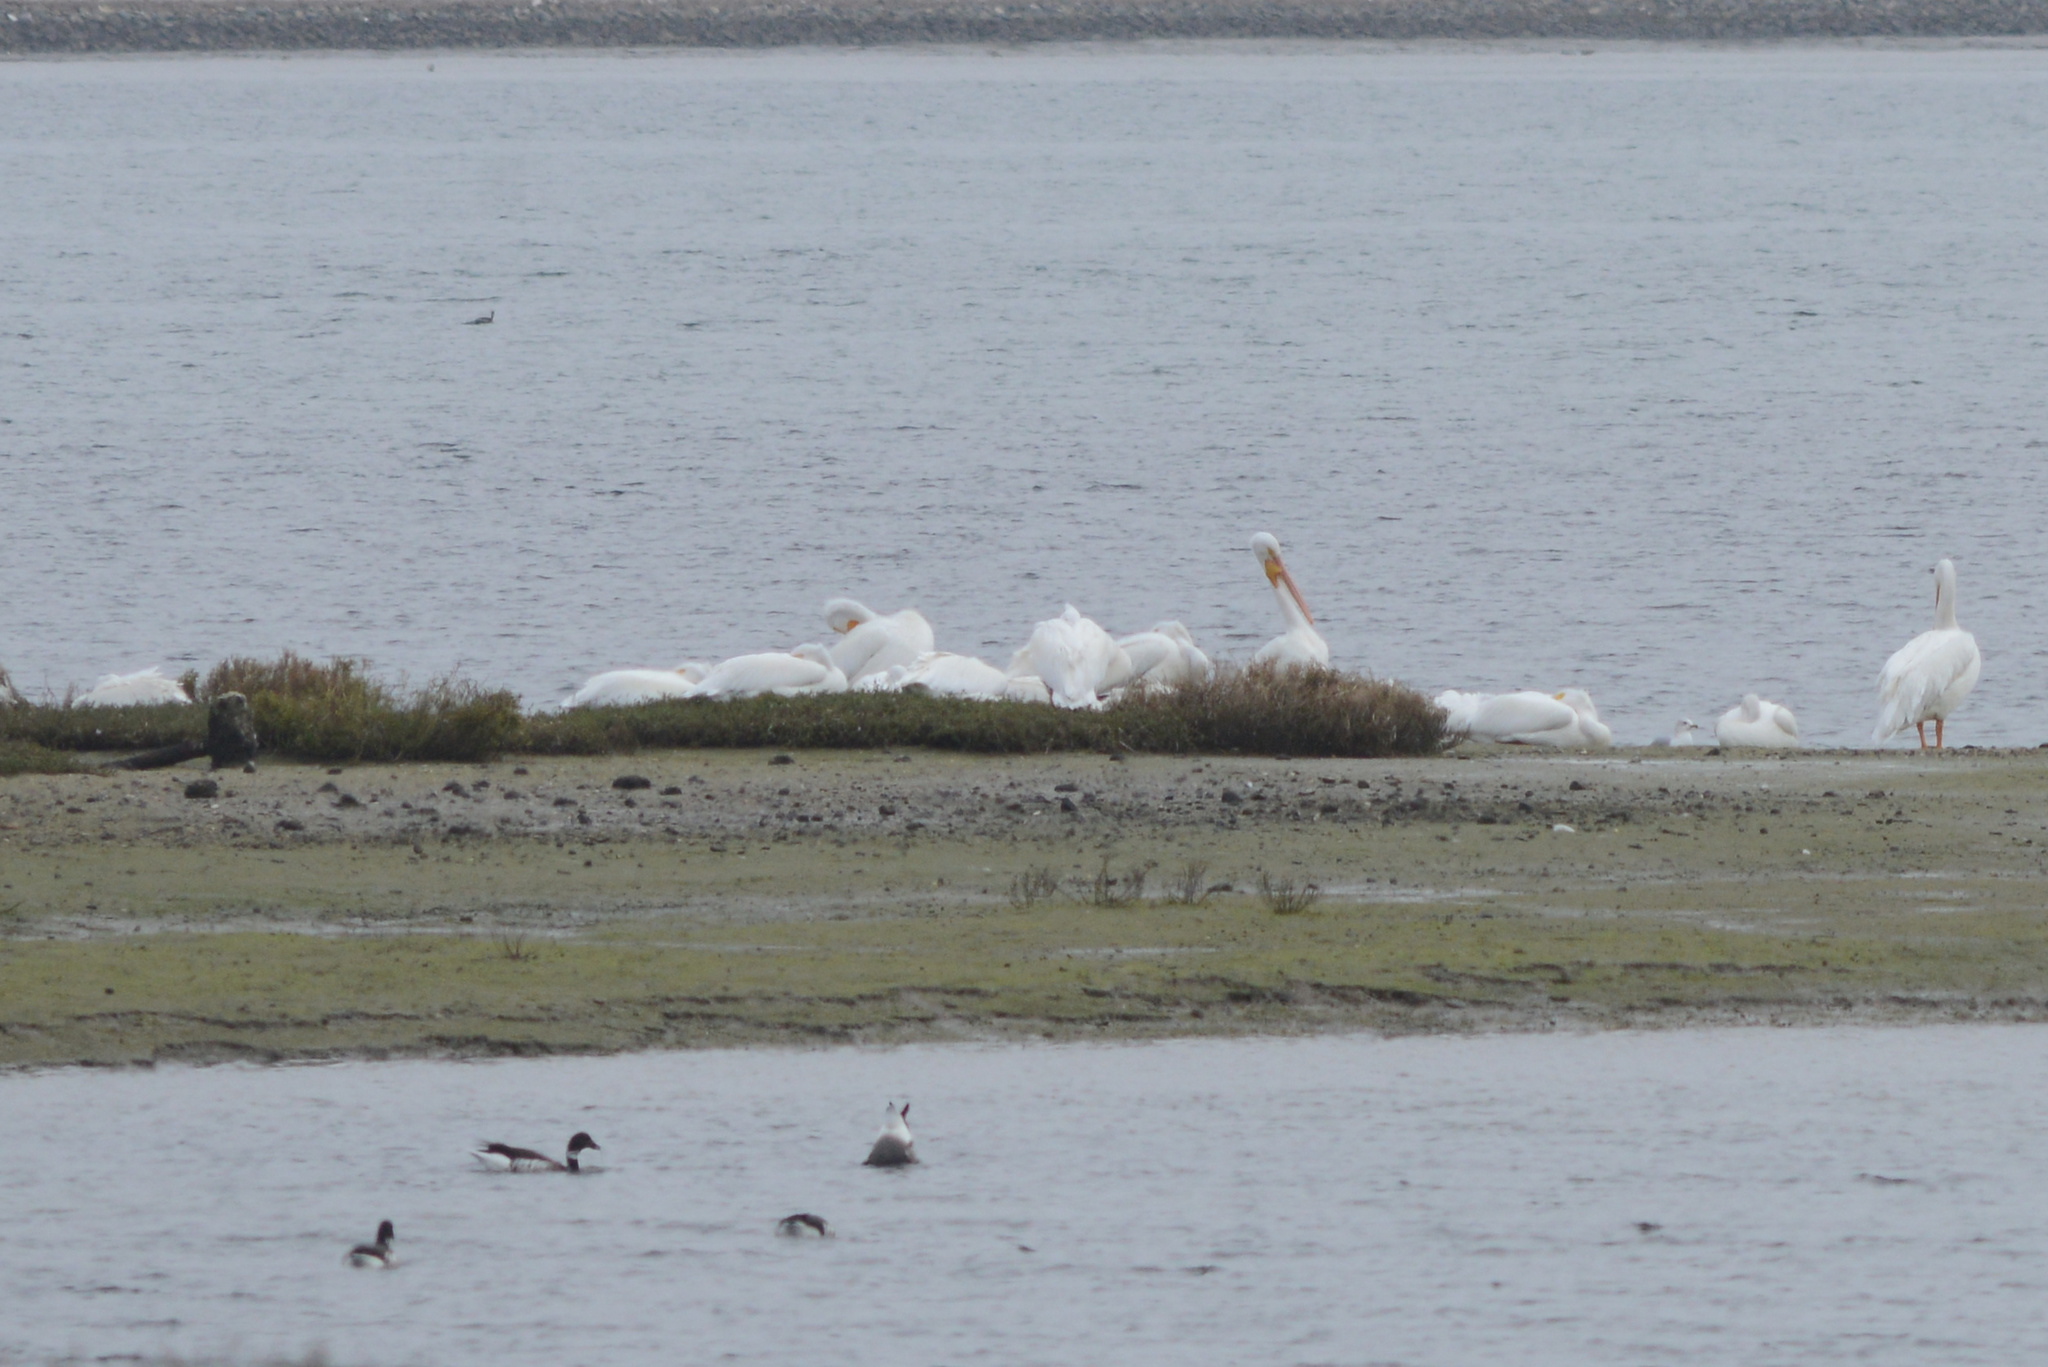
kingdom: Animalia
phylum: Chordata
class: Aves
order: Pelecaniformes
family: Pelecanidae
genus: Pelecanus
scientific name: Pelecanus erythrorhynchos
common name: American white pelican
